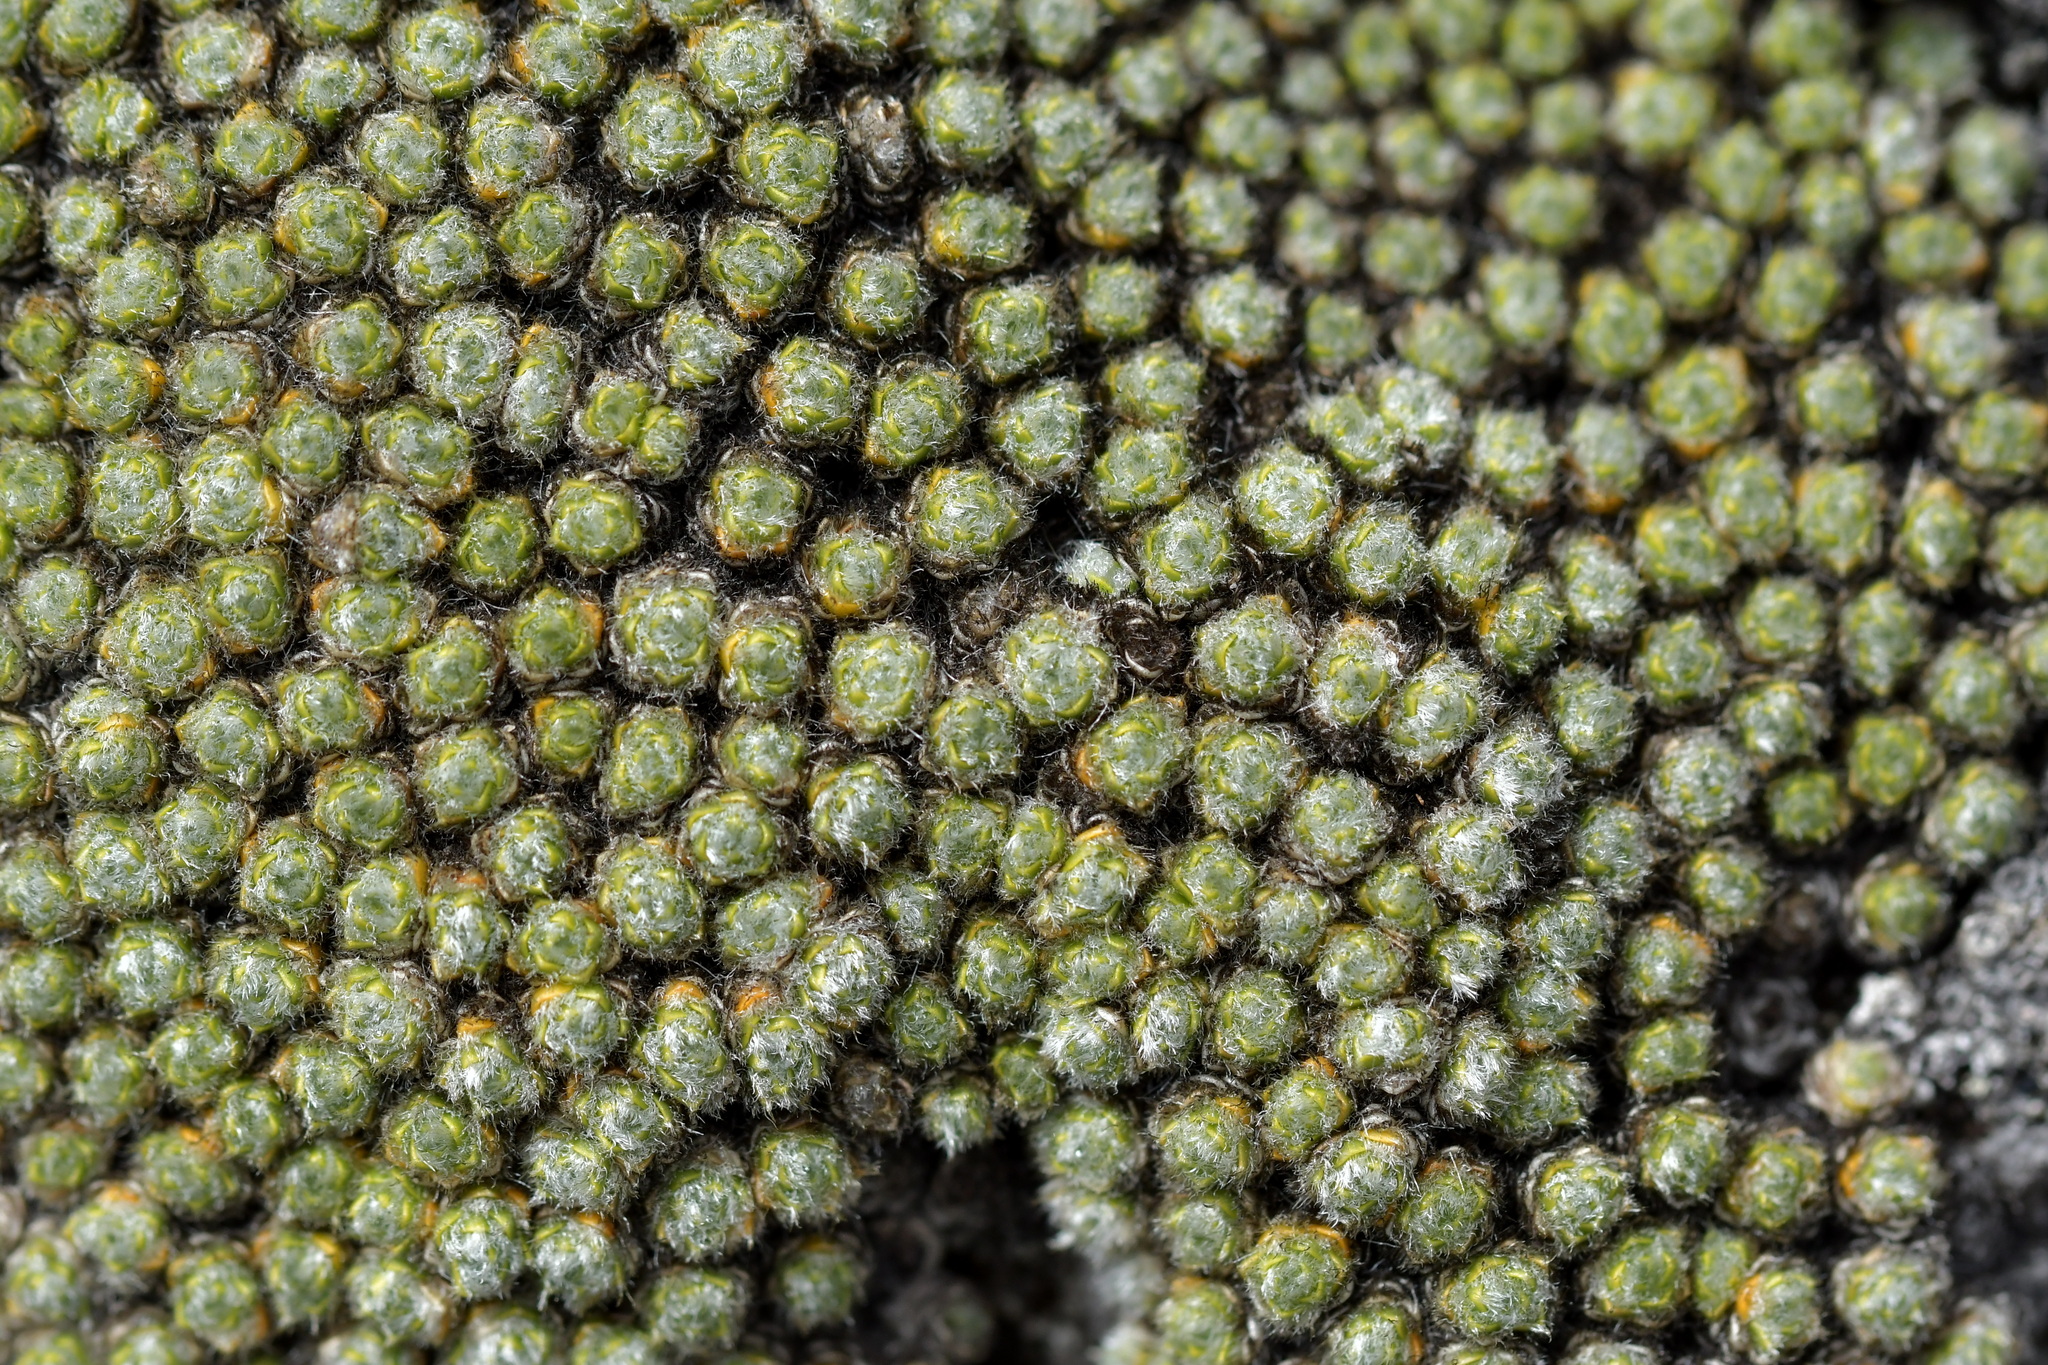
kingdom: Plantae
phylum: Tracheophyta
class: Magnoliopsida
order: Lamiales
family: Plantaginaceae
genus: Veronica
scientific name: Veronica thomsonii
